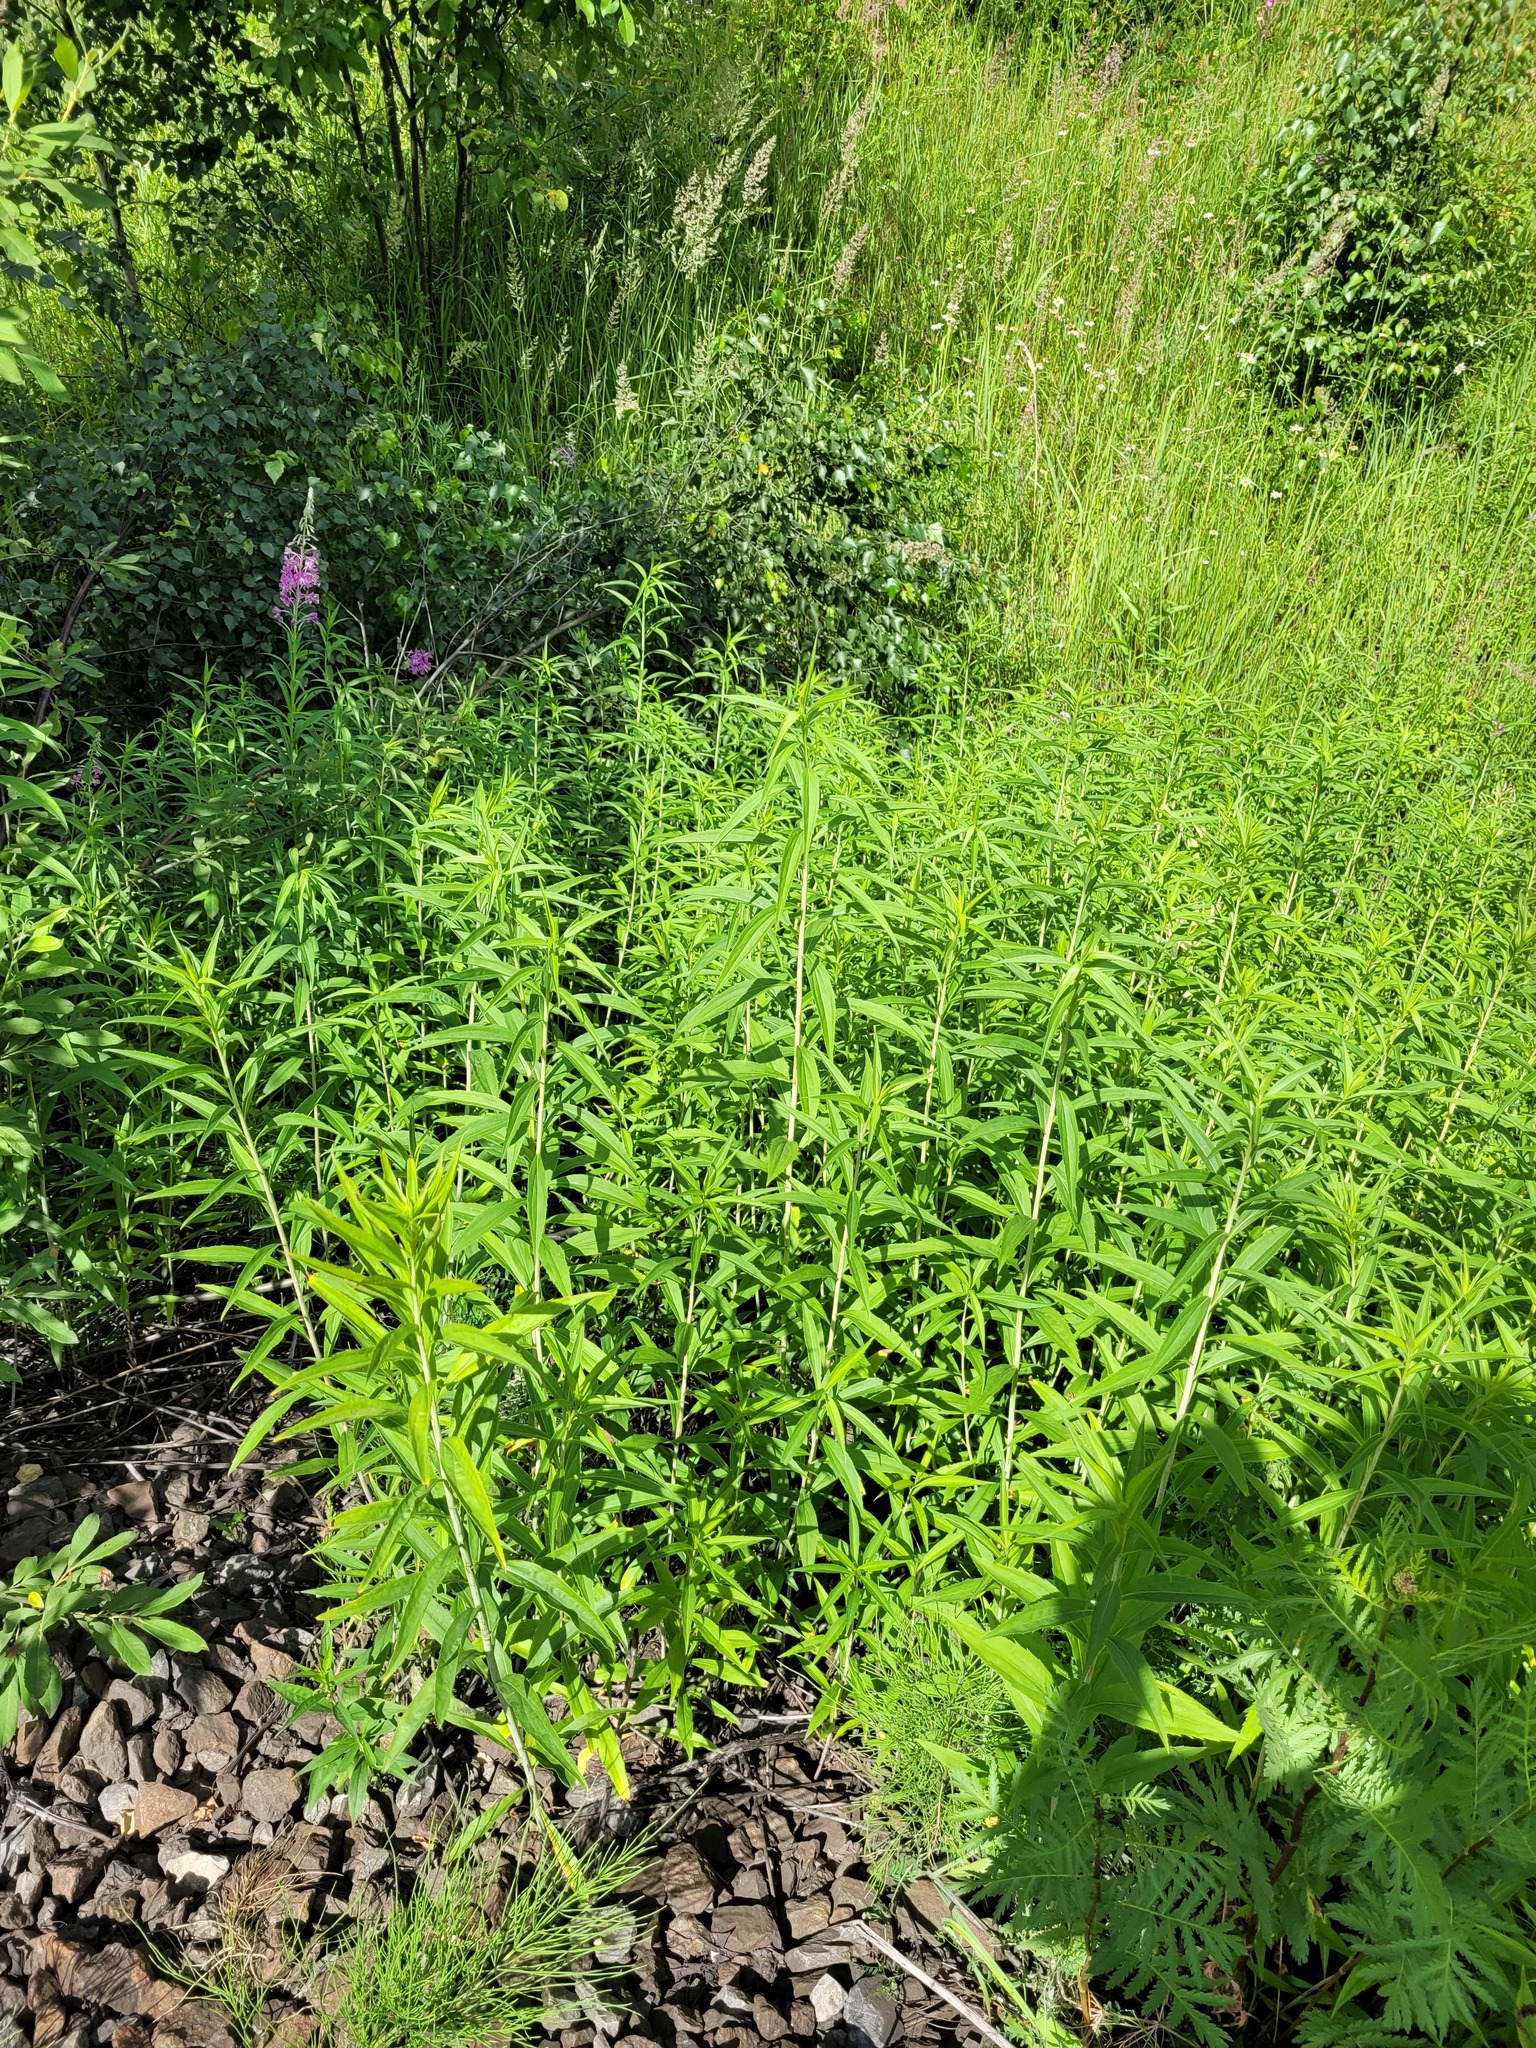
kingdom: Plantae
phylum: Tracheophyta
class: Magnoliopsida
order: Asterales
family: Asteraceae
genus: Solidago
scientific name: Solidago gigantea
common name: Giant goldenrod
